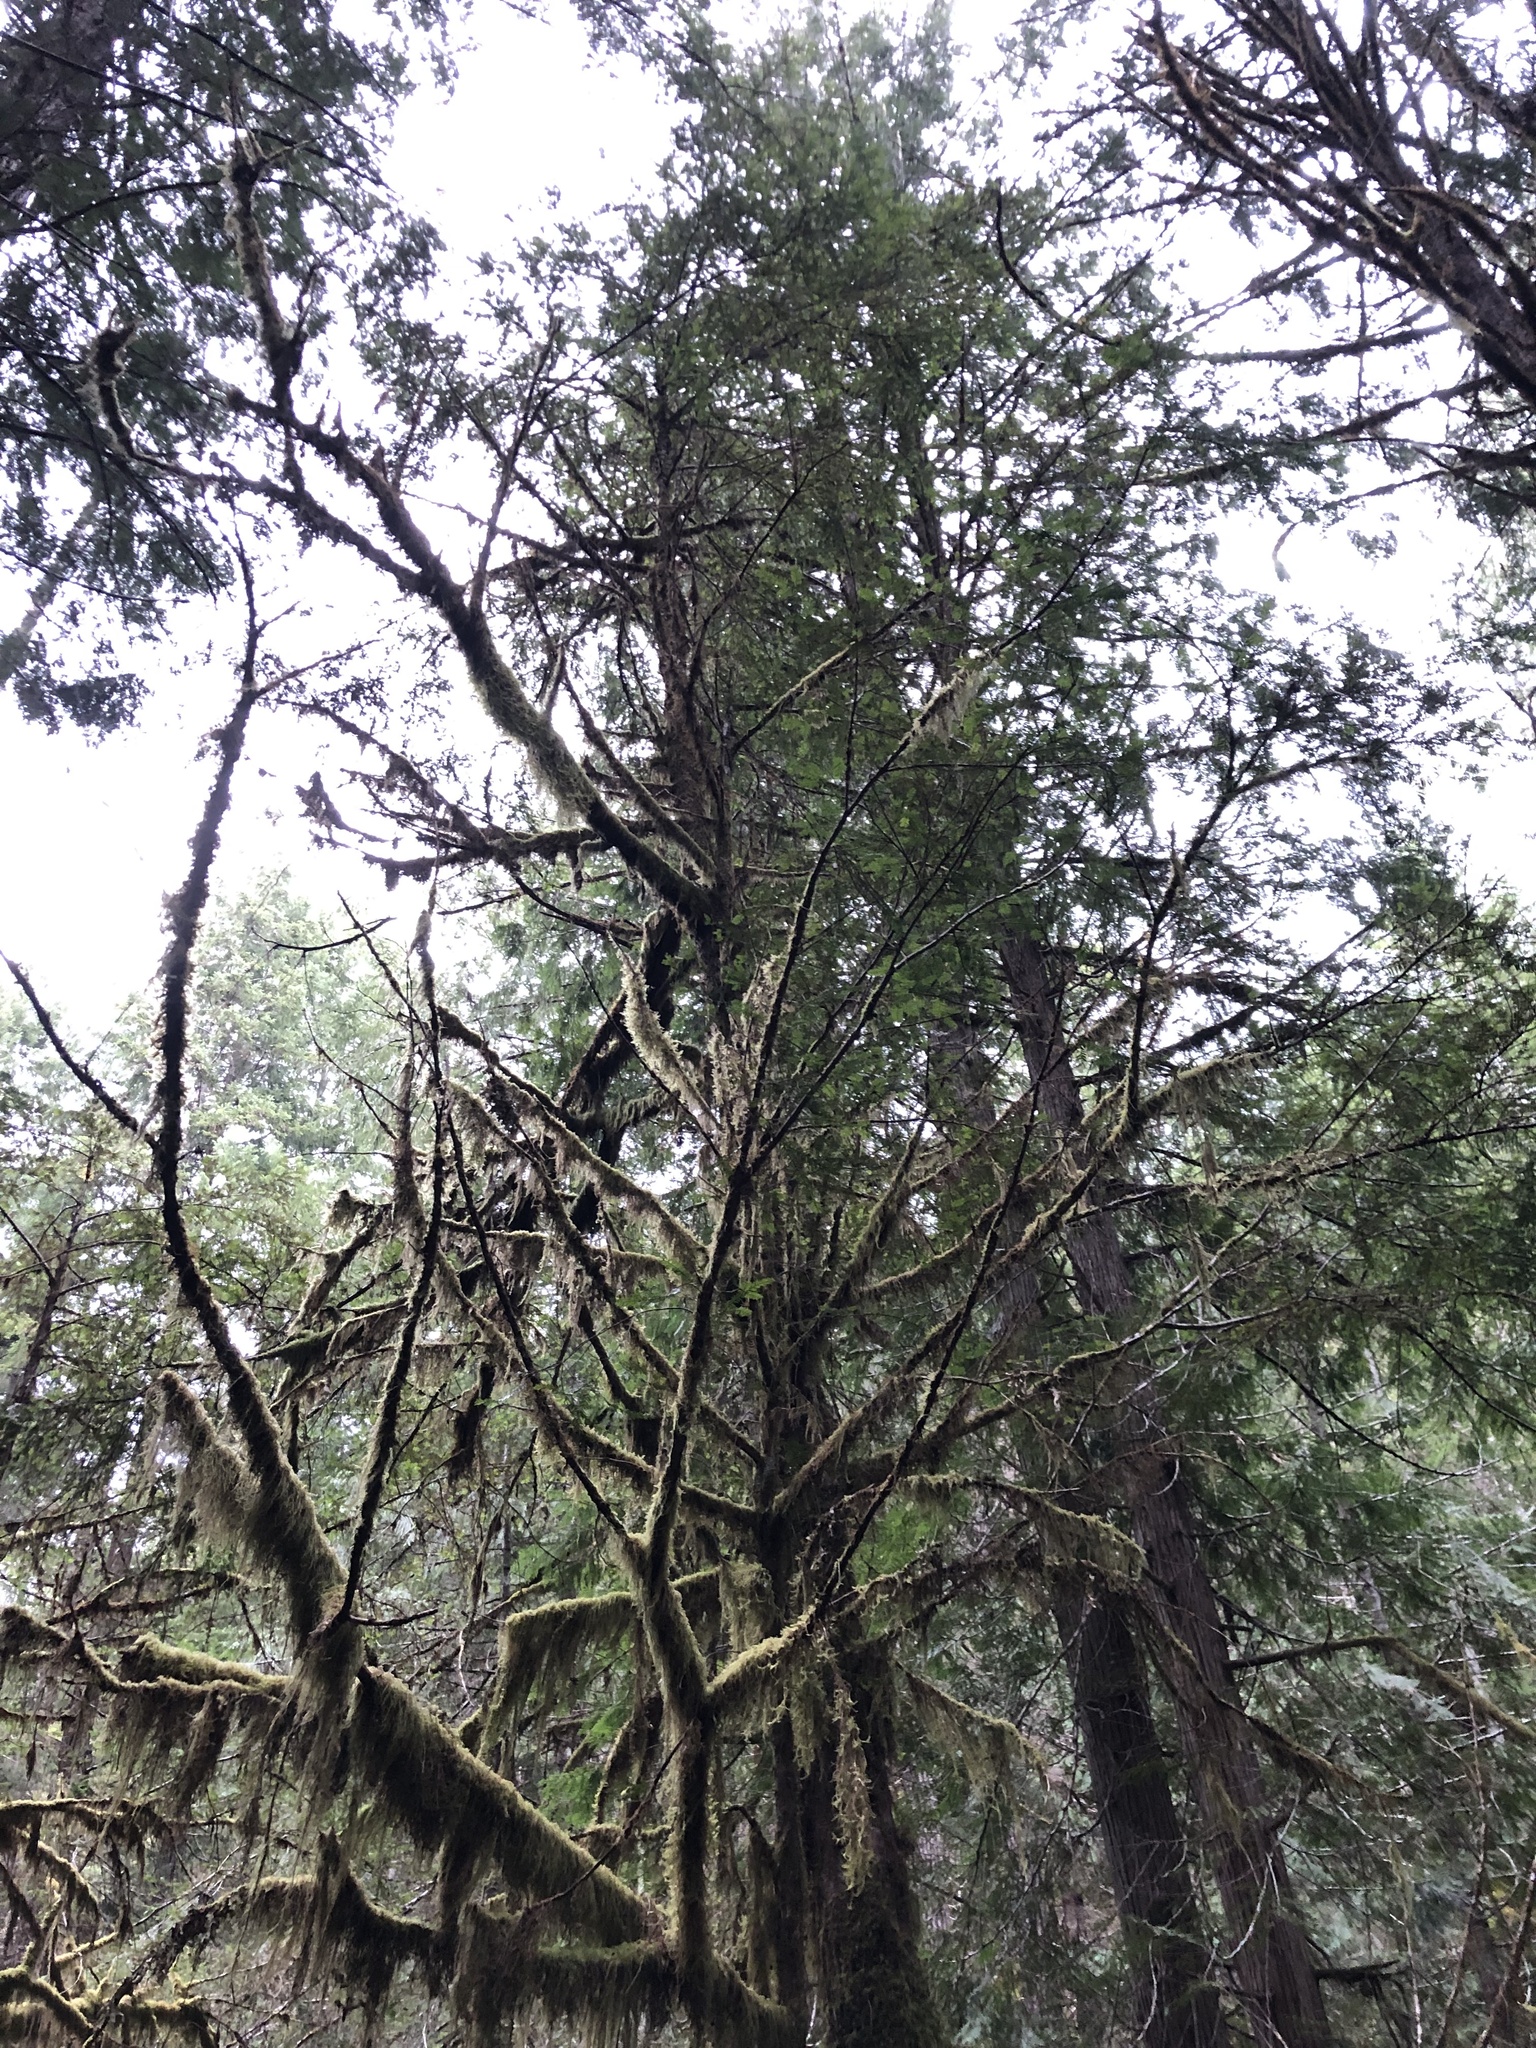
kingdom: Plantae
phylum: Tracheophyta
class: Pinopsida
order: Pinales
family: Taxaceae
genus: Taxus
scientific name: Taxus brevifolia
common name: Pacific yew
